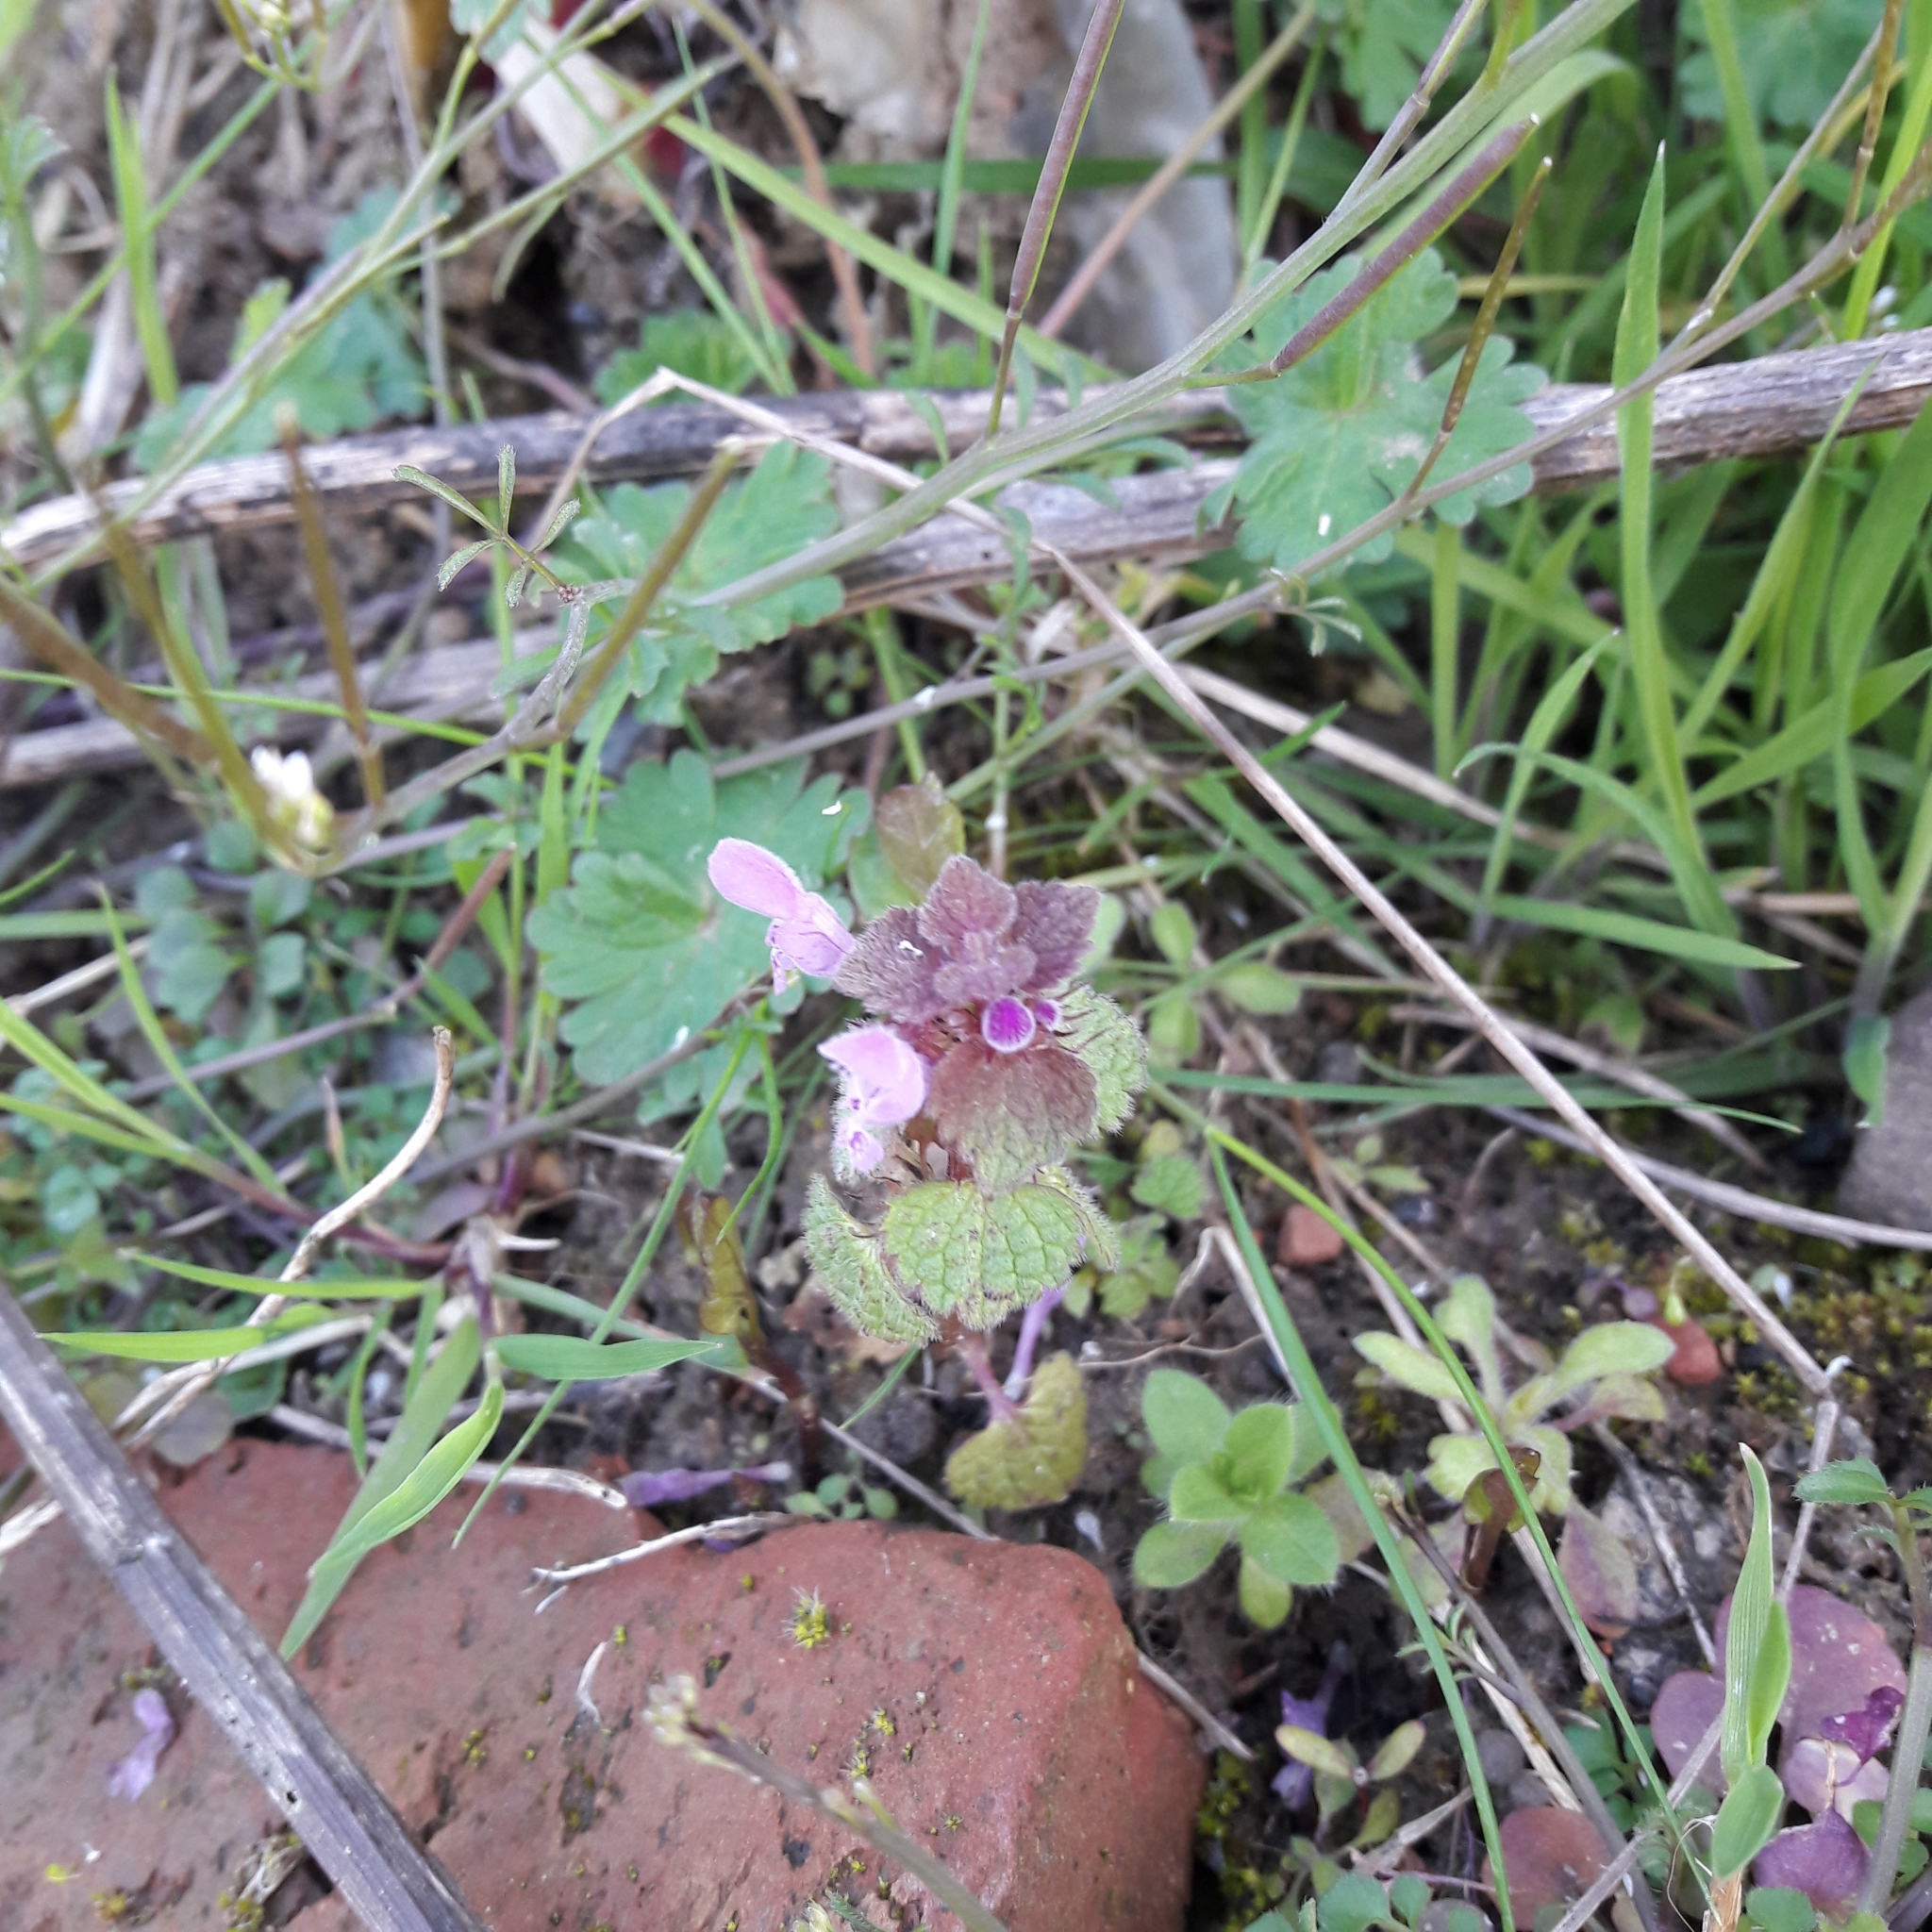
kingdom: Plantae
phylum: Tracheophyta
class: Magnoliopsida
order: Lamiales
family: Lamiaceae
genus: Lamium
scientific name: Lamium purpureum
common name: Red dead-nettle
